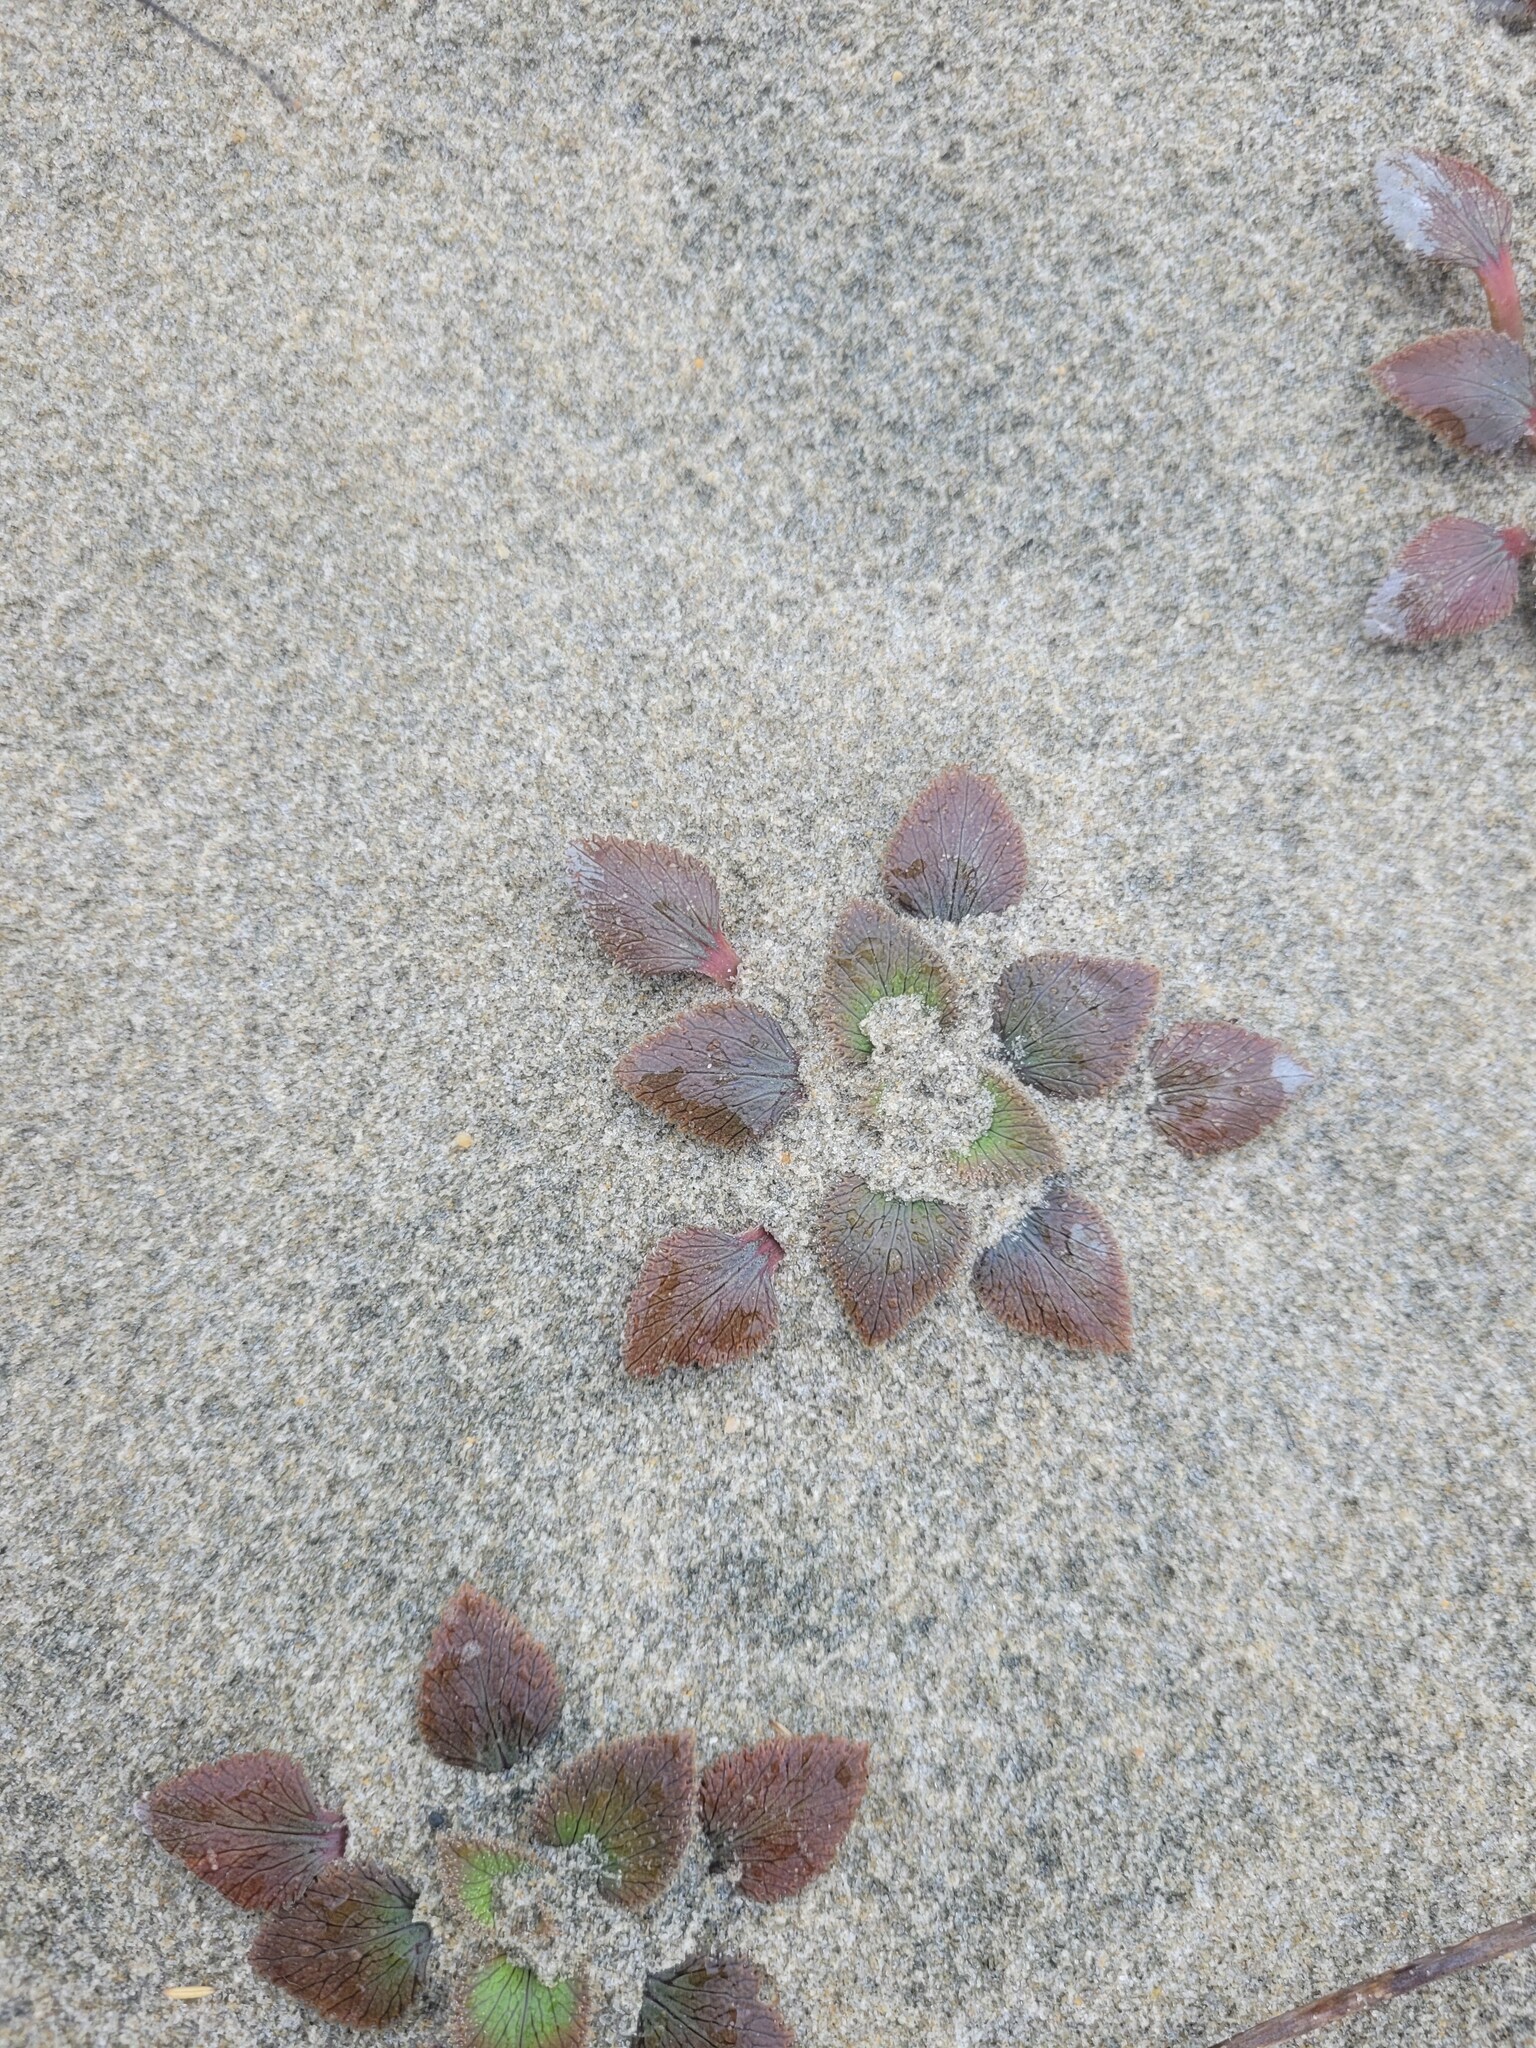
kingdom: Plantae
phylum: Tracheophyta
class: Magnoliopsida
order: Gunnerales
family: Gunneraceae
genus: Gunnera
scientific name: Gunnera hamiltonii
